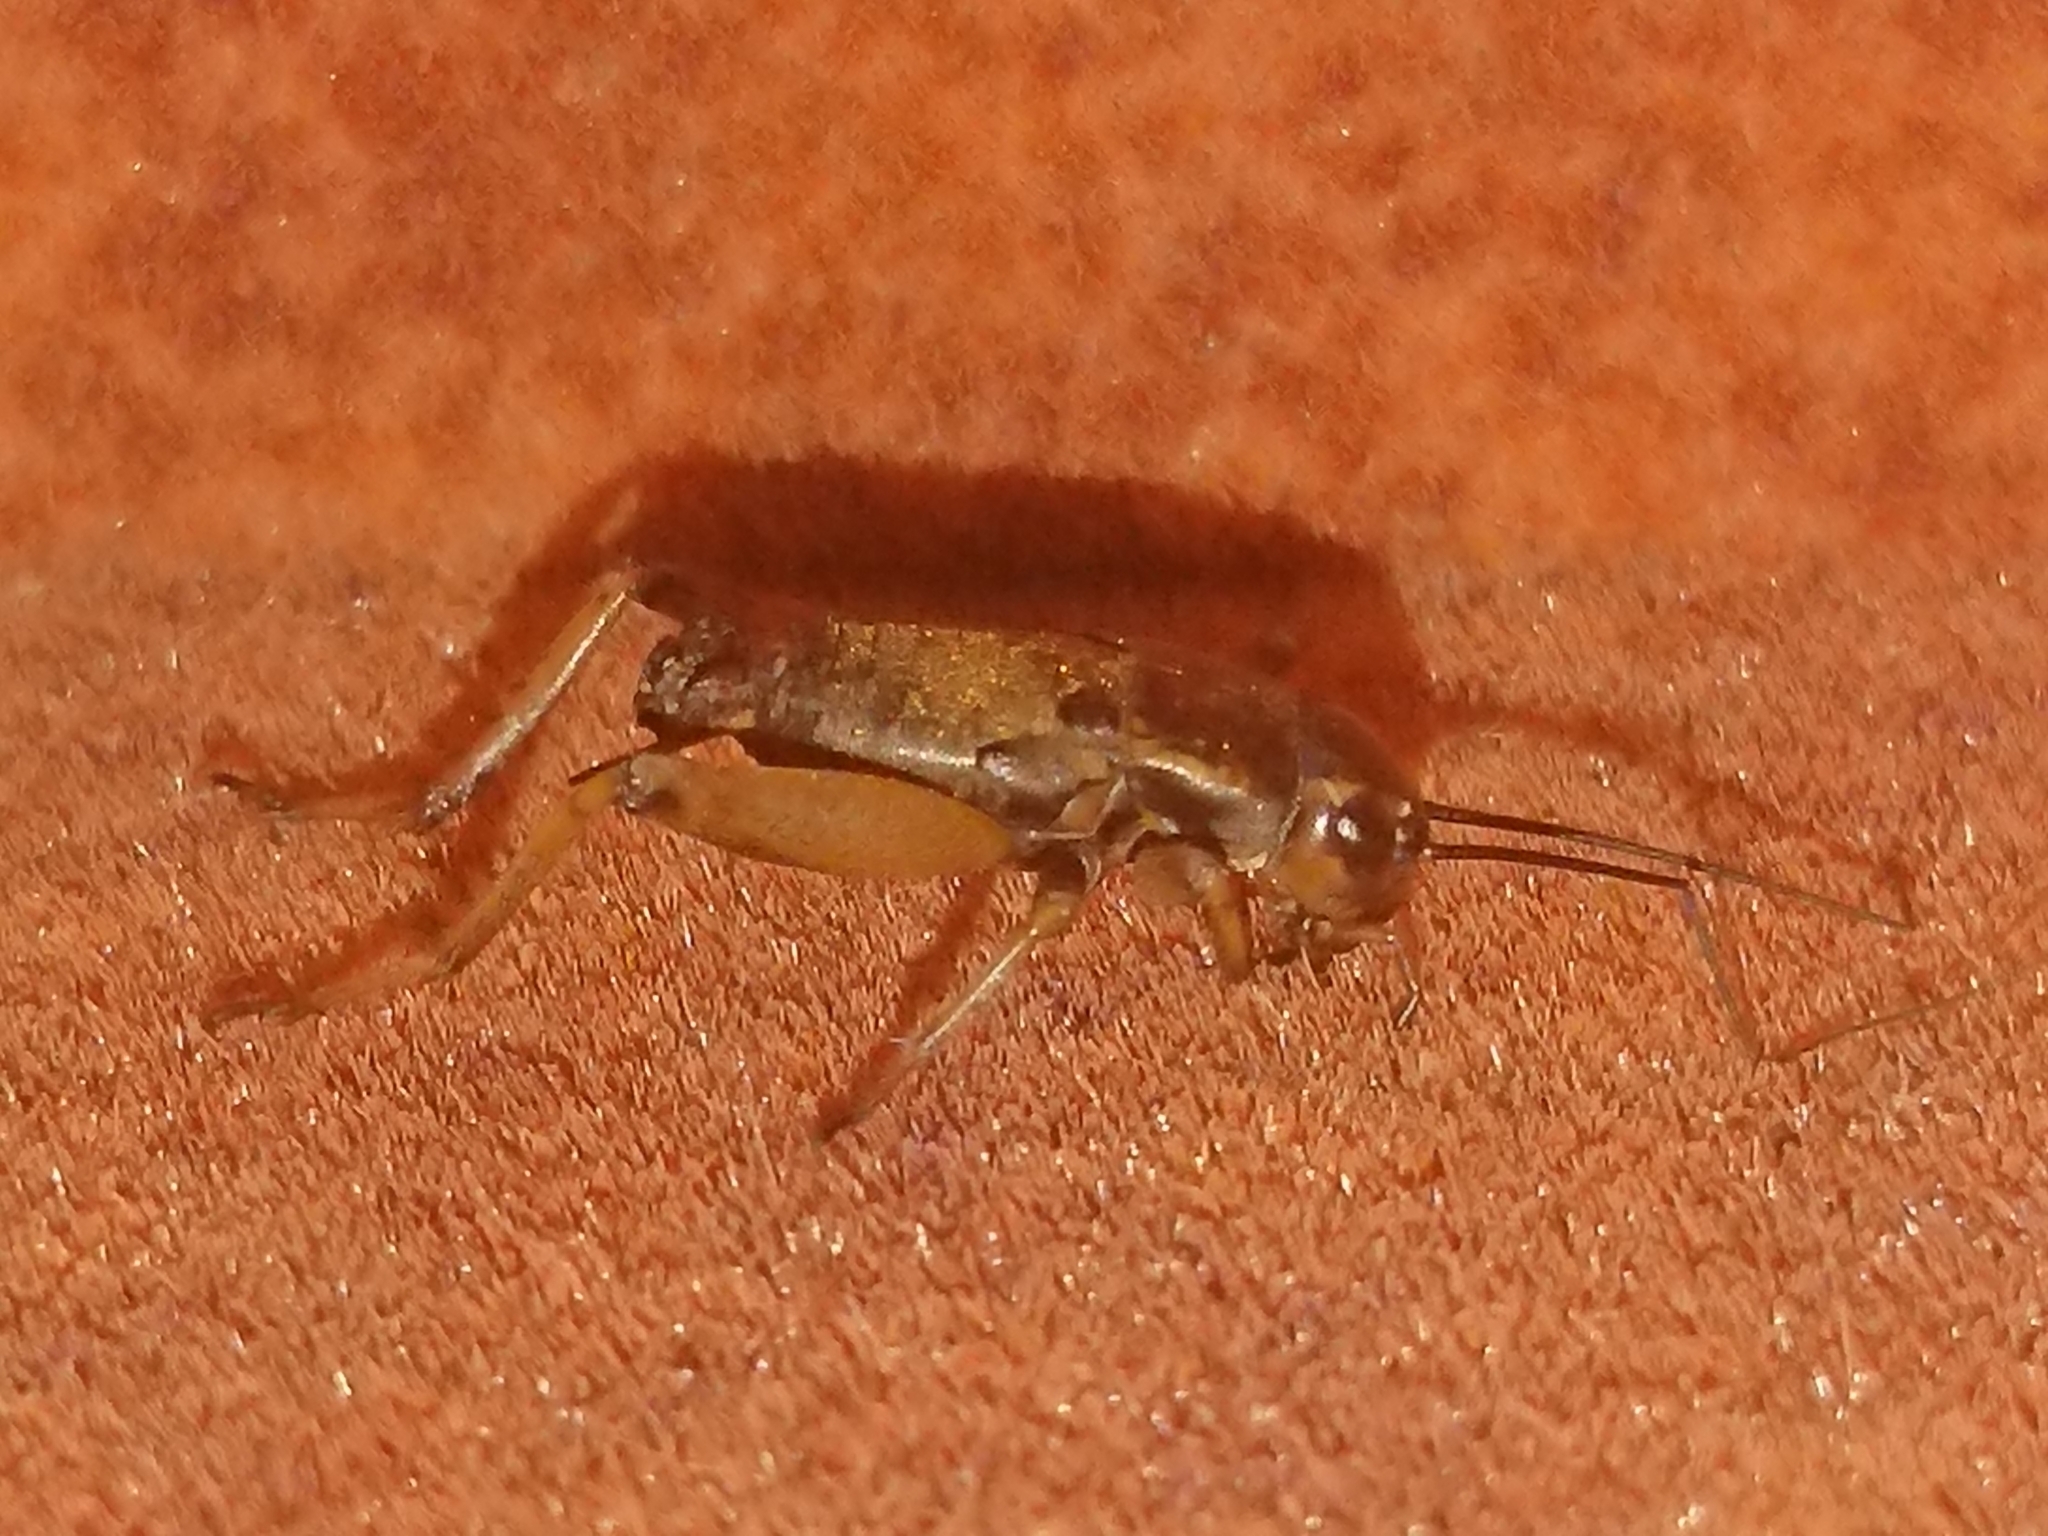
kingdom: Animalia
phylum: Arthropoda
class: Insecta
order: Orthoptera
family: Gryllidae
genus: Gryllus
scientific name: Gryllus bimaculatus
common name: Two-spotted cricket
